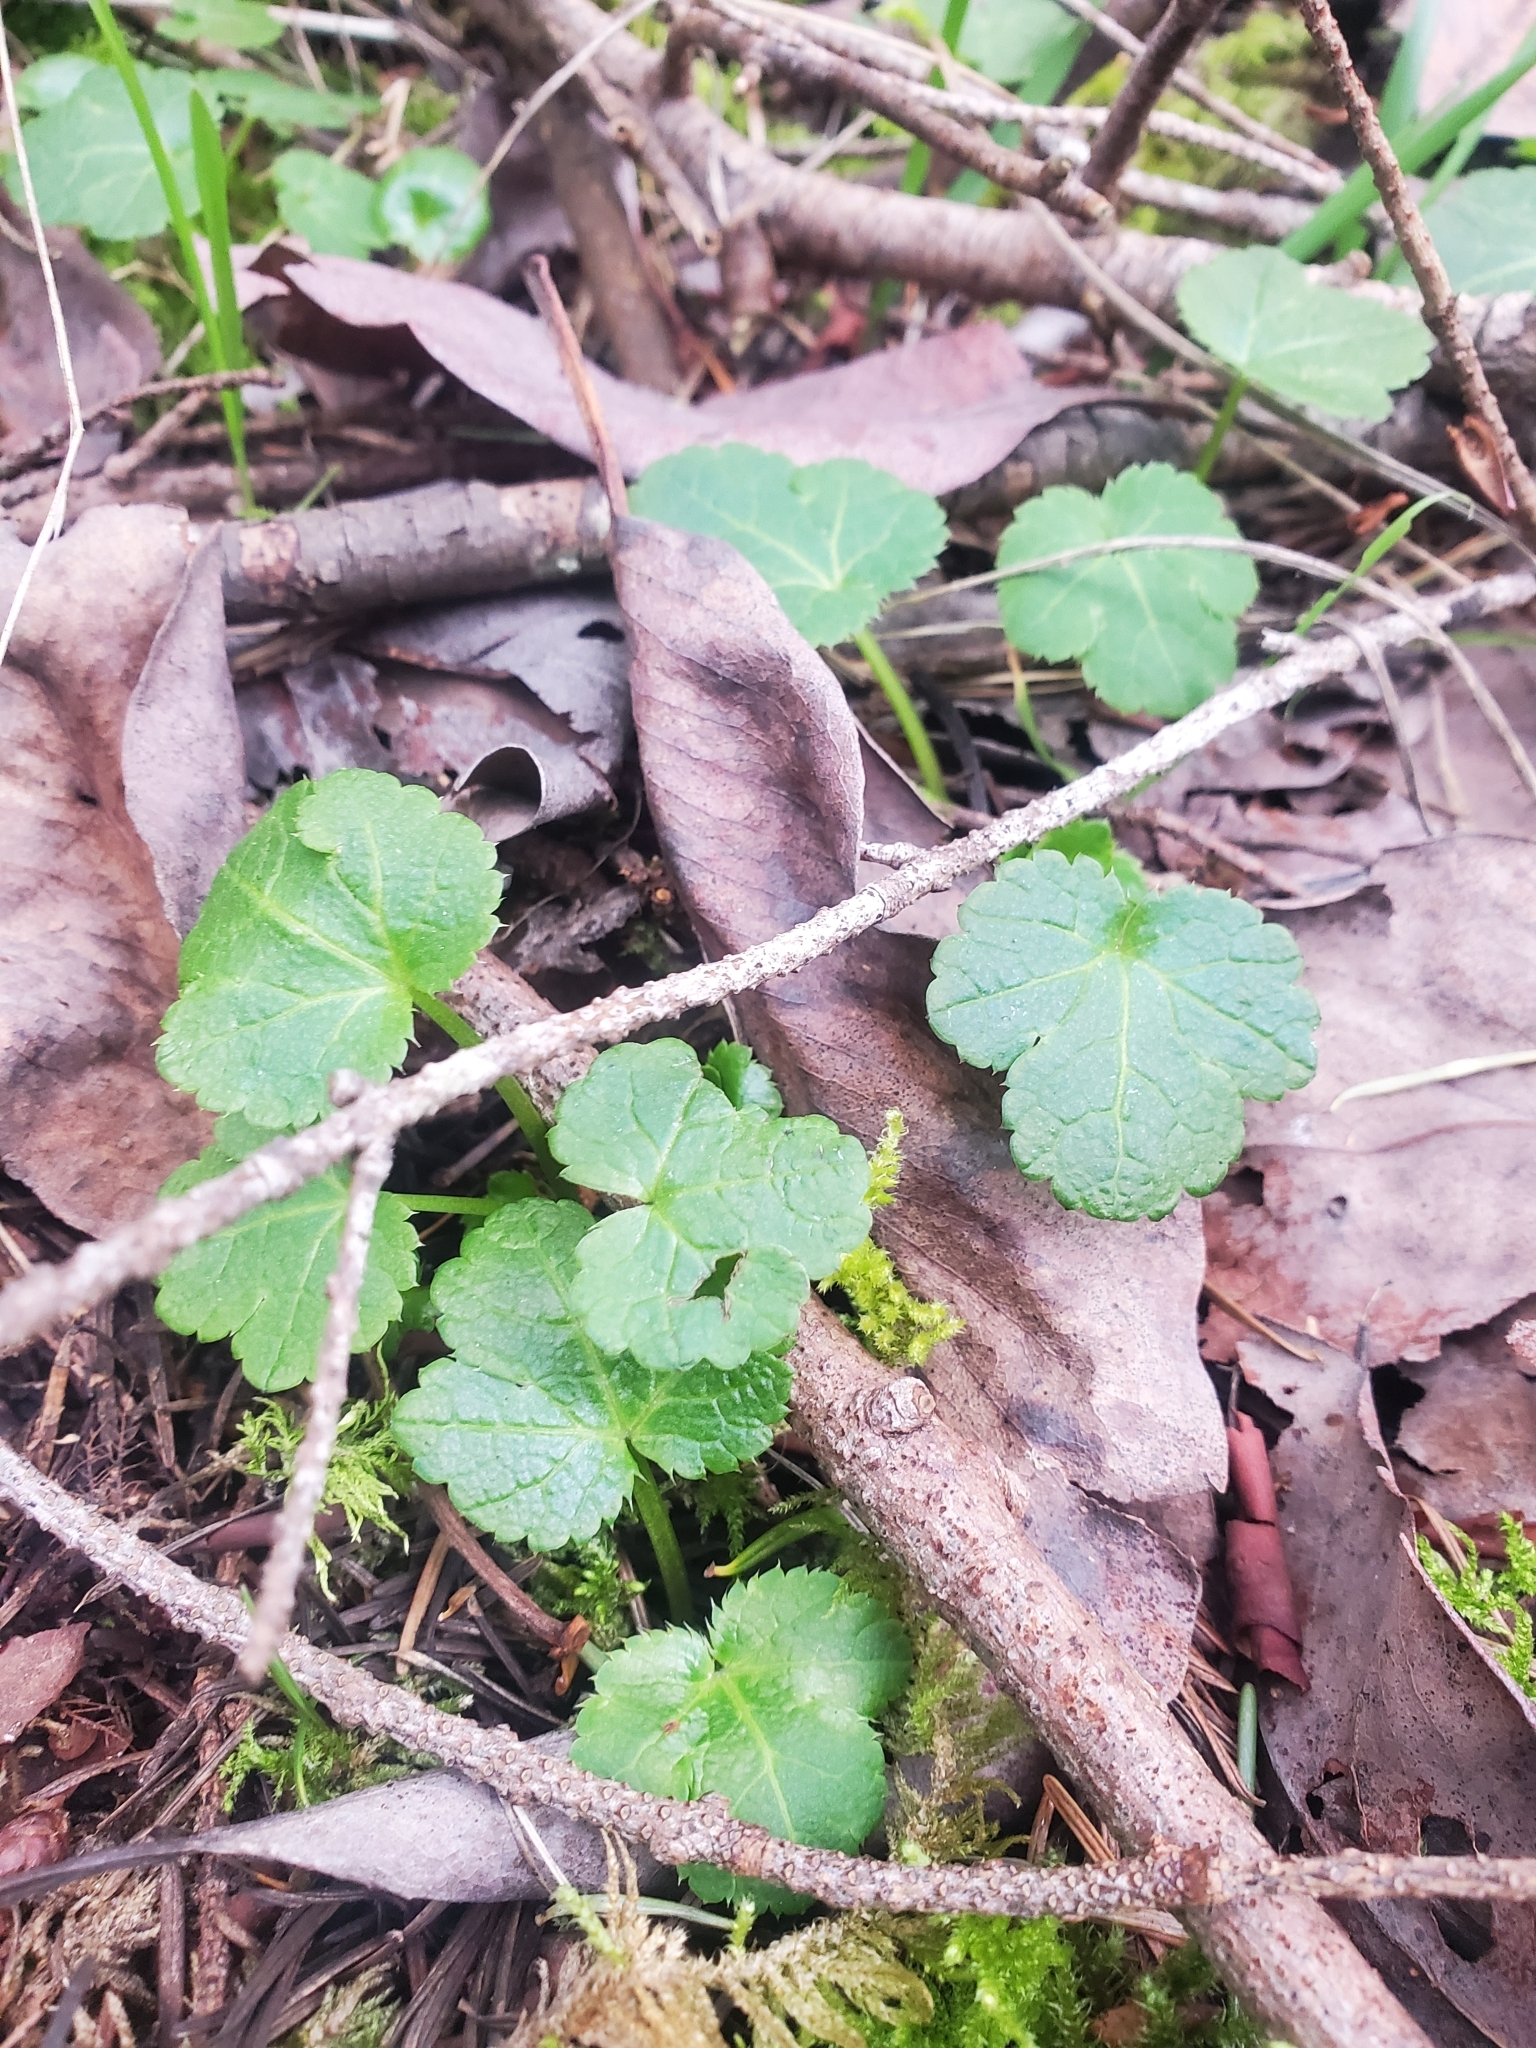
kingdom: Plantae
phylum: Tracheophyta
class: Magnoliopsida
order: Apiales
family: Apiaceae
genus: Sanicula
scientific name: Sanicula crassicaulis
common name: Western snakeroot
